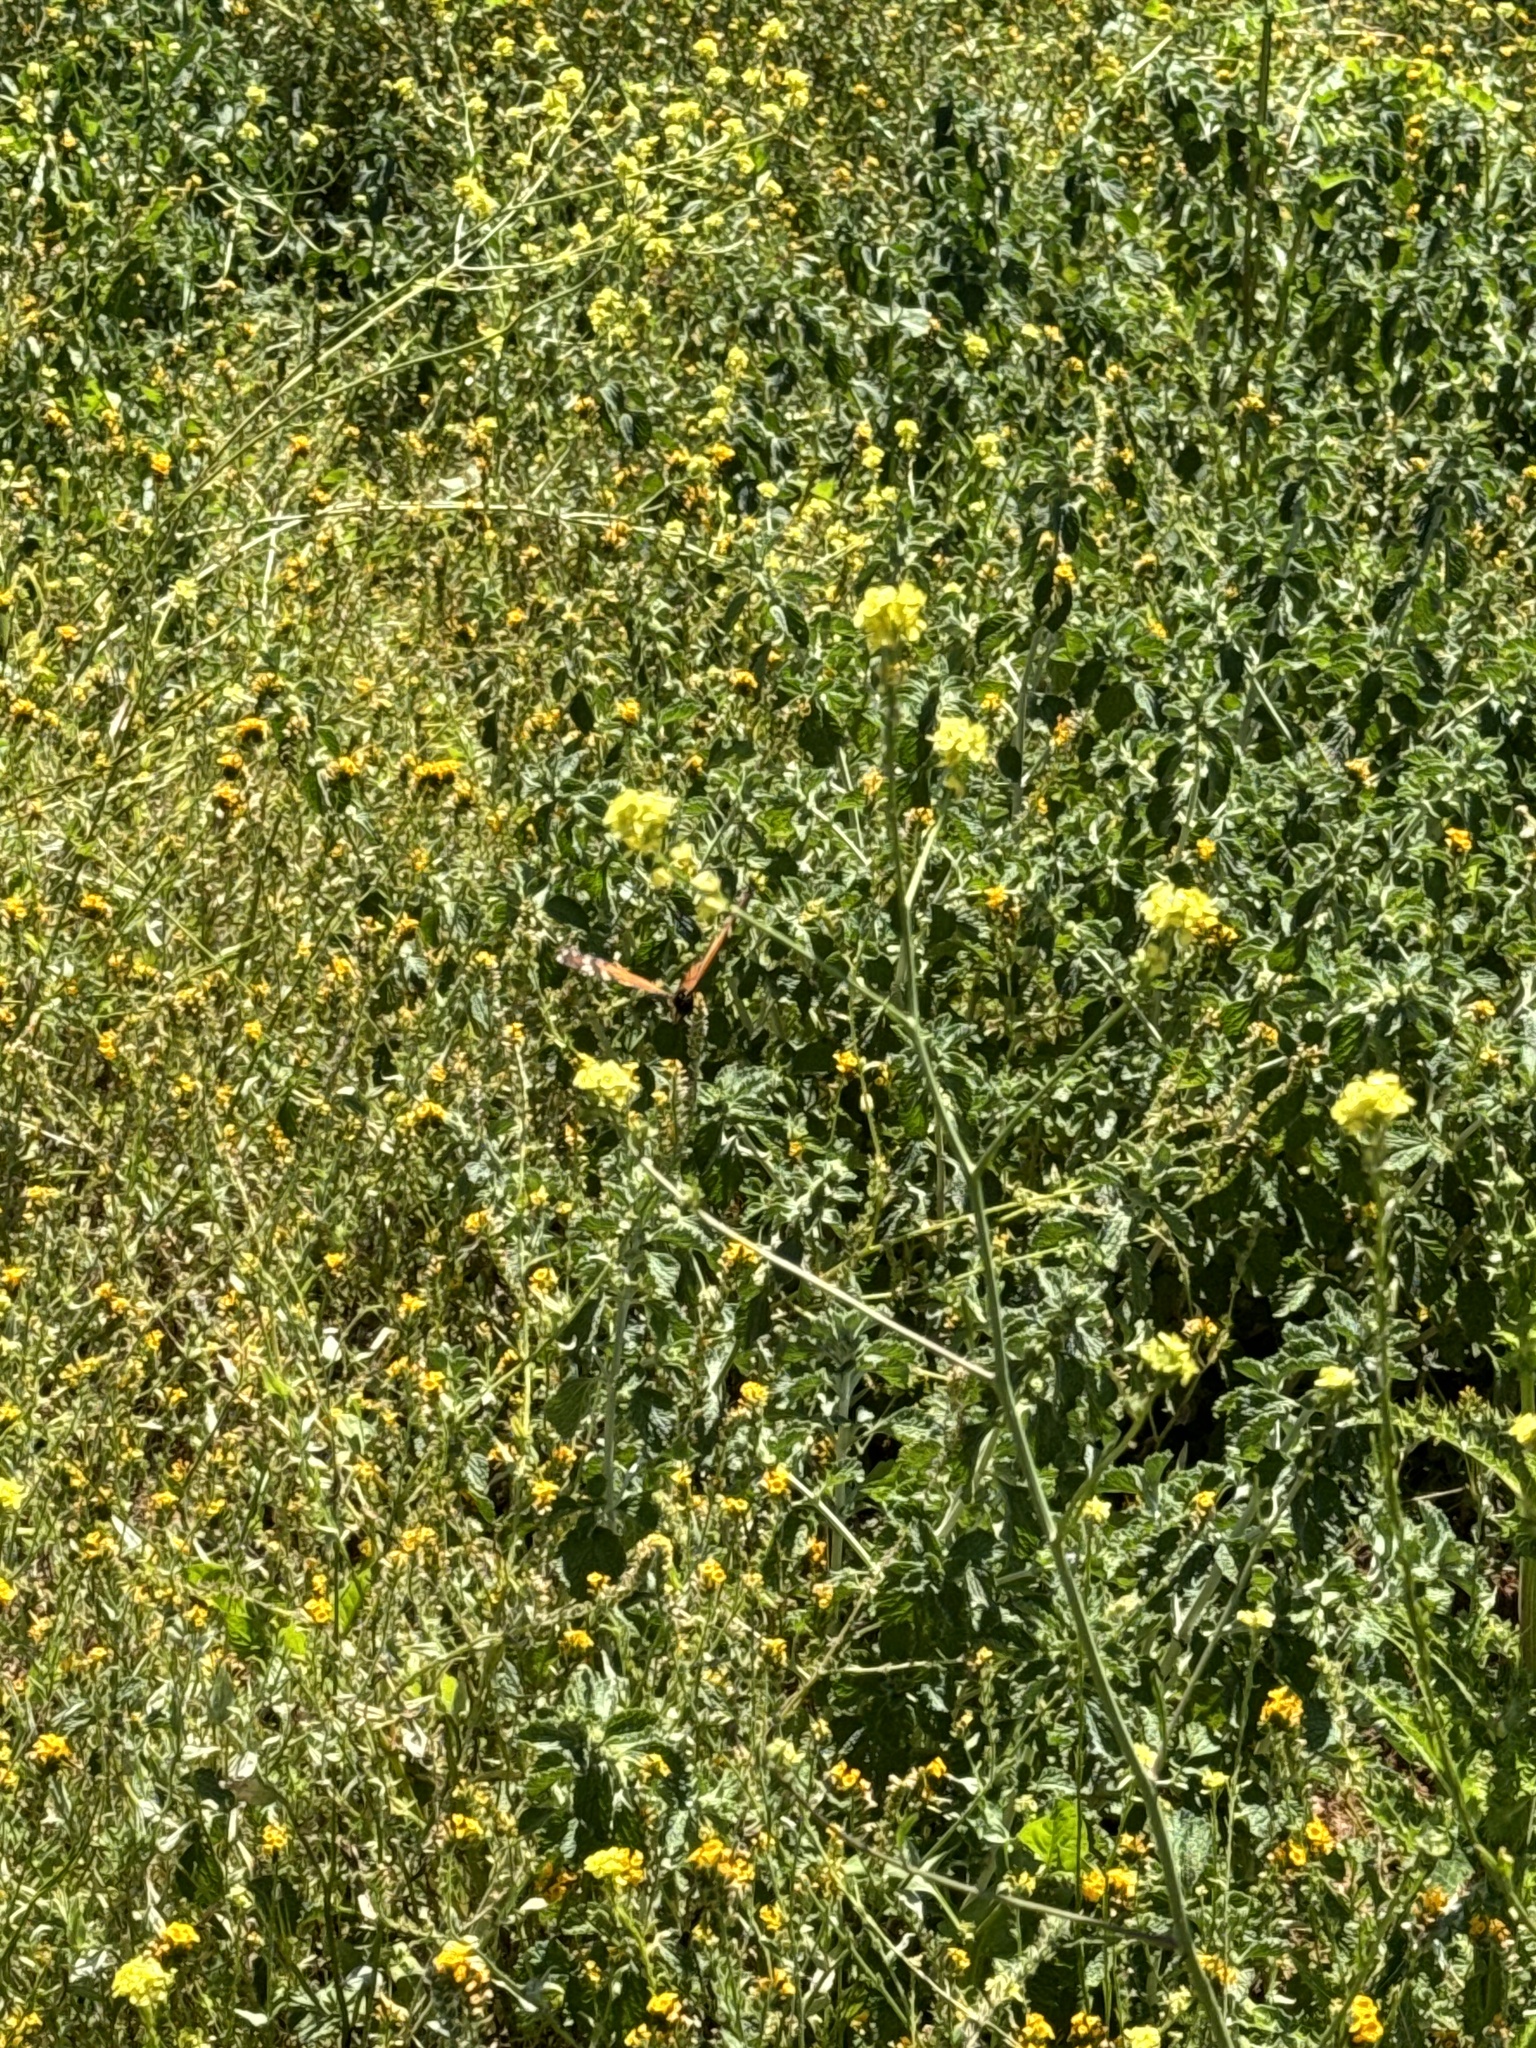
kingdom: Animalia
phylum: Arthropoda
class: Insecta
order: Lepidoptera
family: Nymphalidae
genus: Danaus
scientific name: Danaus plexippus
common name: Monarch
